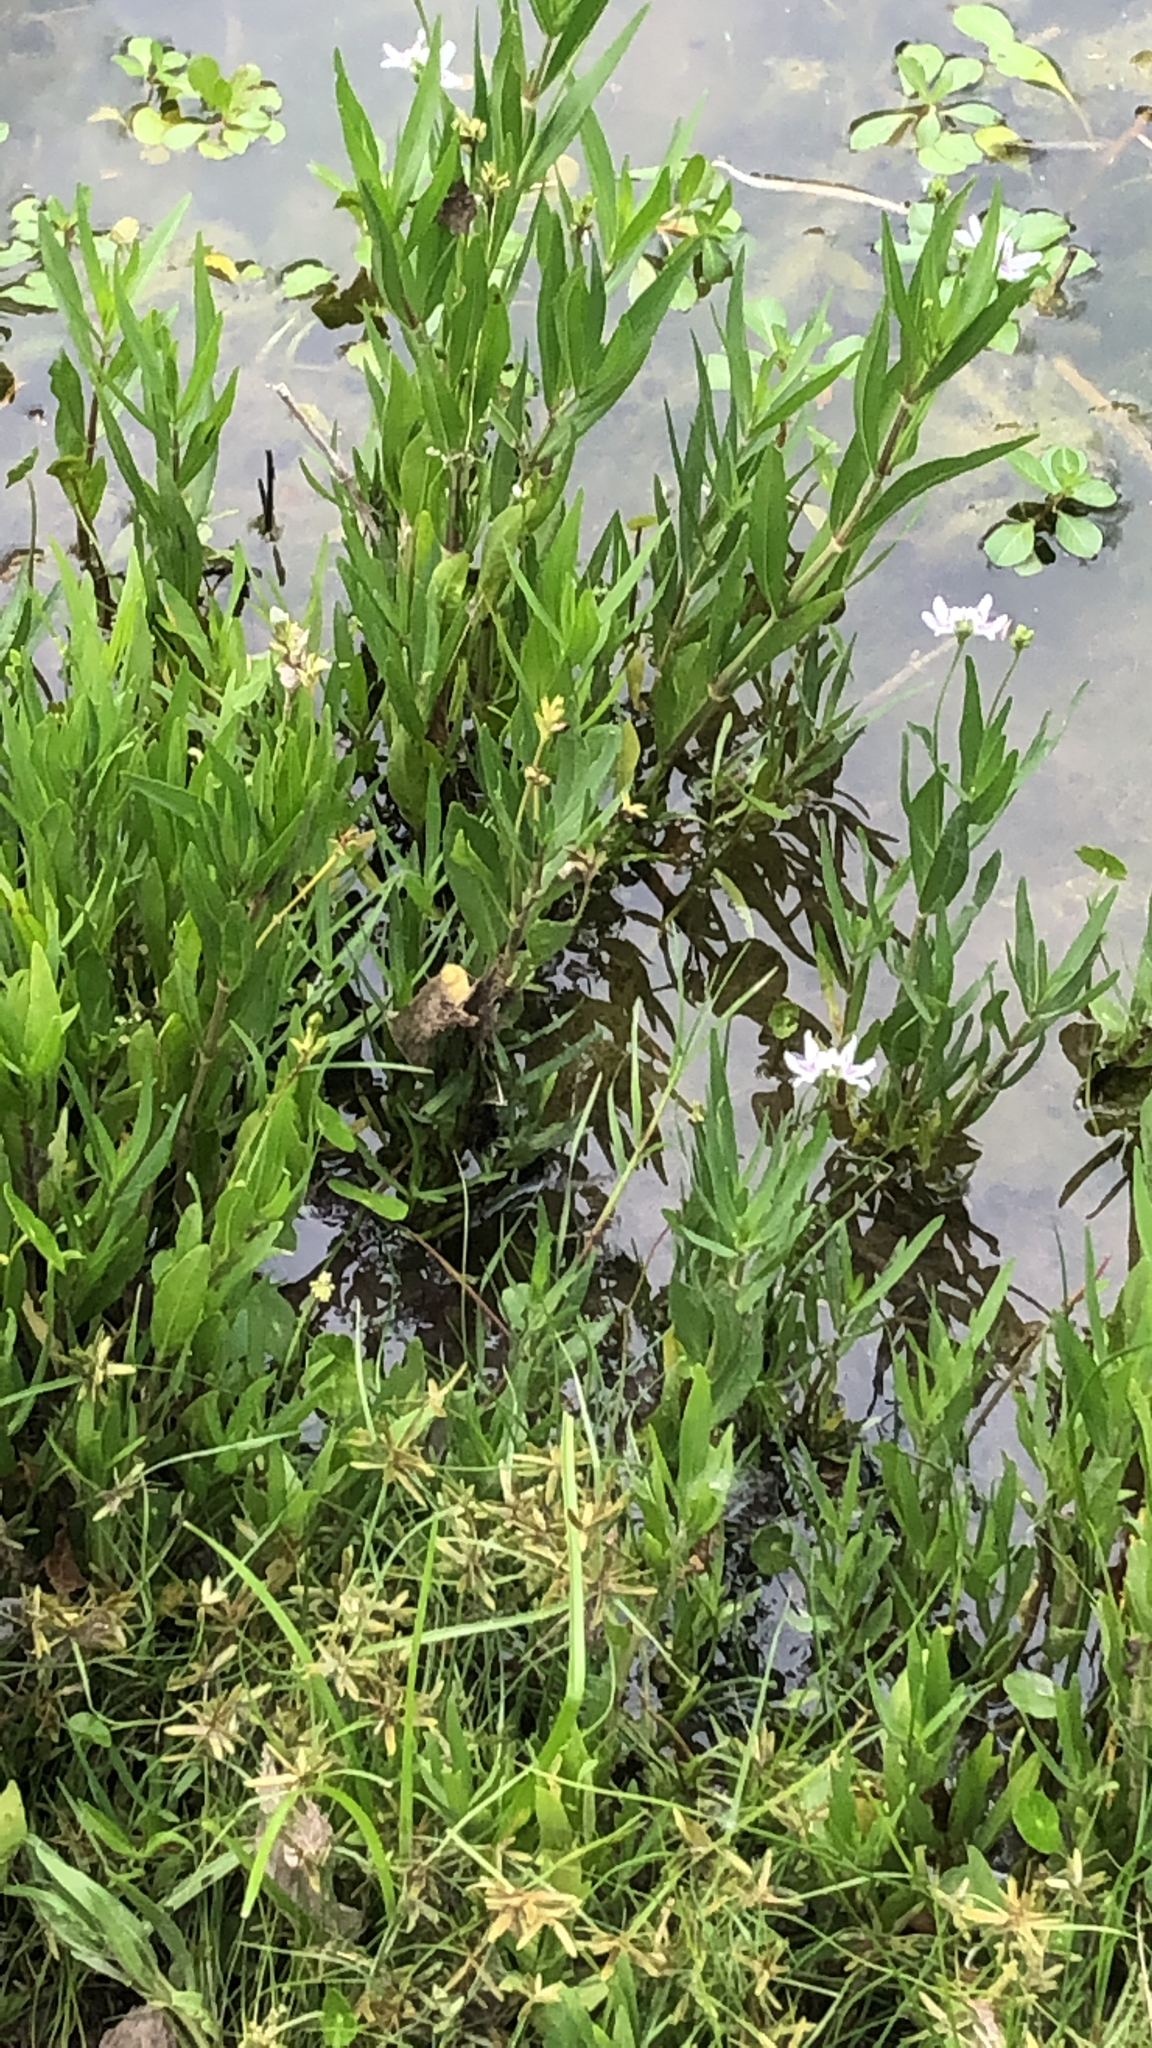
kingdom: Plantae
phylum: Tracheophyta
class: Magnoliopsida
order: Lamiales
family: Acanthaceae
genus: Dianthera
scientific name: Dianthera americana
